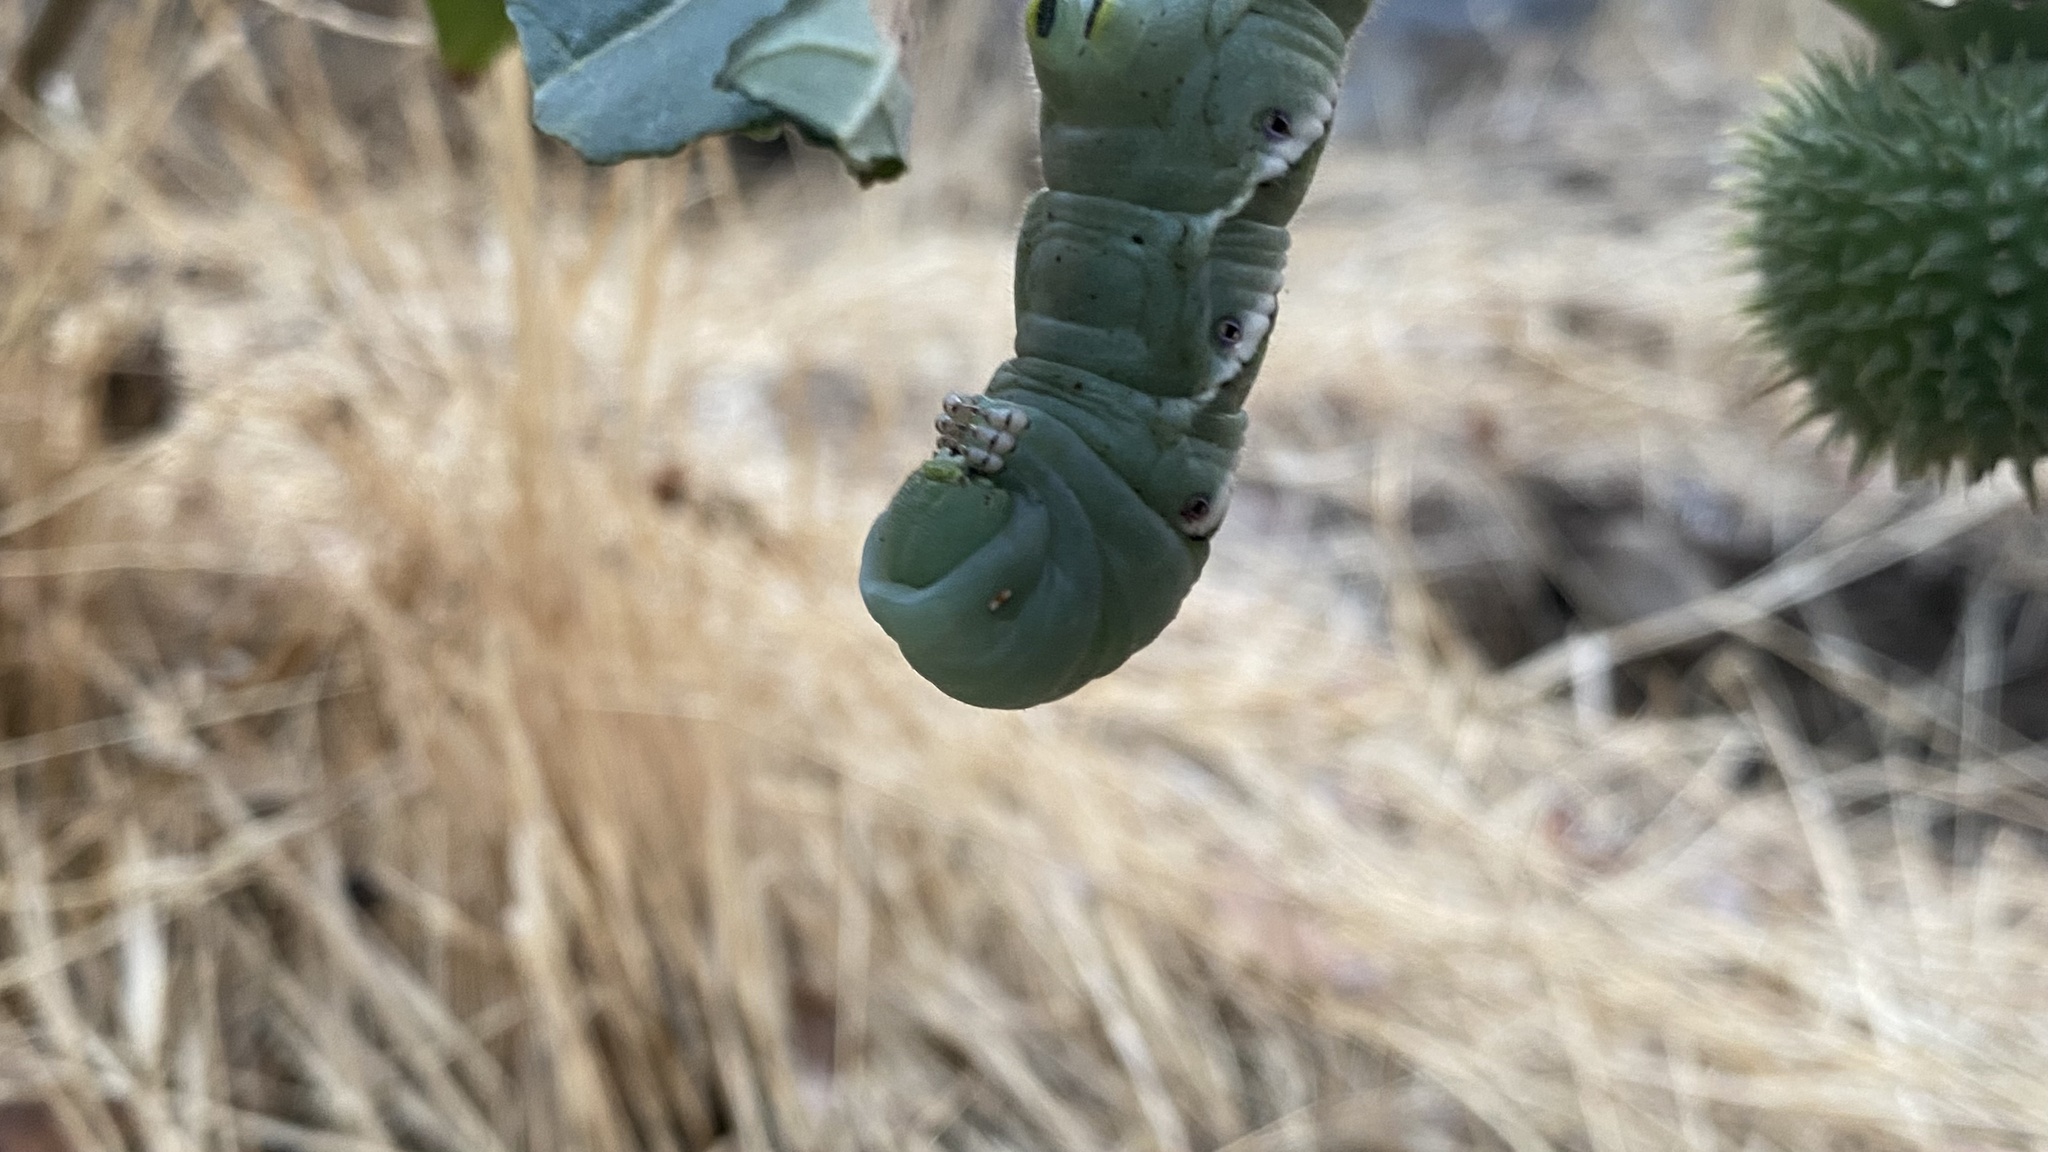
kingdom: Animalia
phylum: Arthropoda
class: Insecta
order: Lepidoptera
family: Sphingidae
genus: Manduca
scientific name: Manduca sexta
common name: Carolina sphinx
